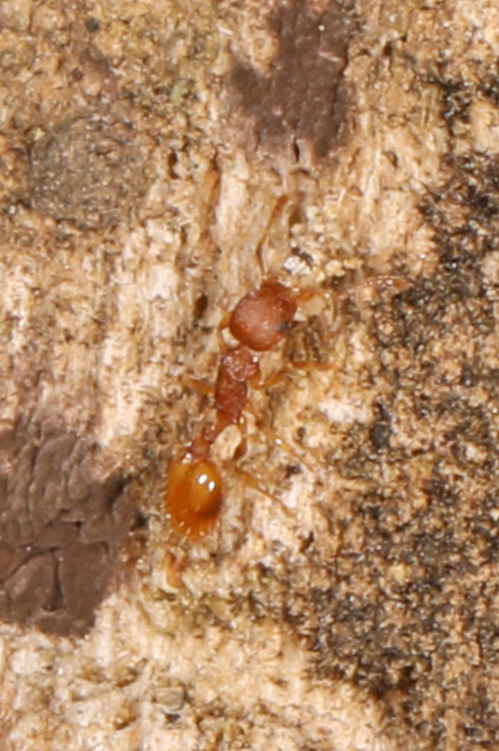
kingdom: Animalia
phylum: Arthropoda
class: Insecta
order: Hymenoptera
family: Formicidae
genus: Temnothorax
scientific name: Temnothorax curvispinosus
